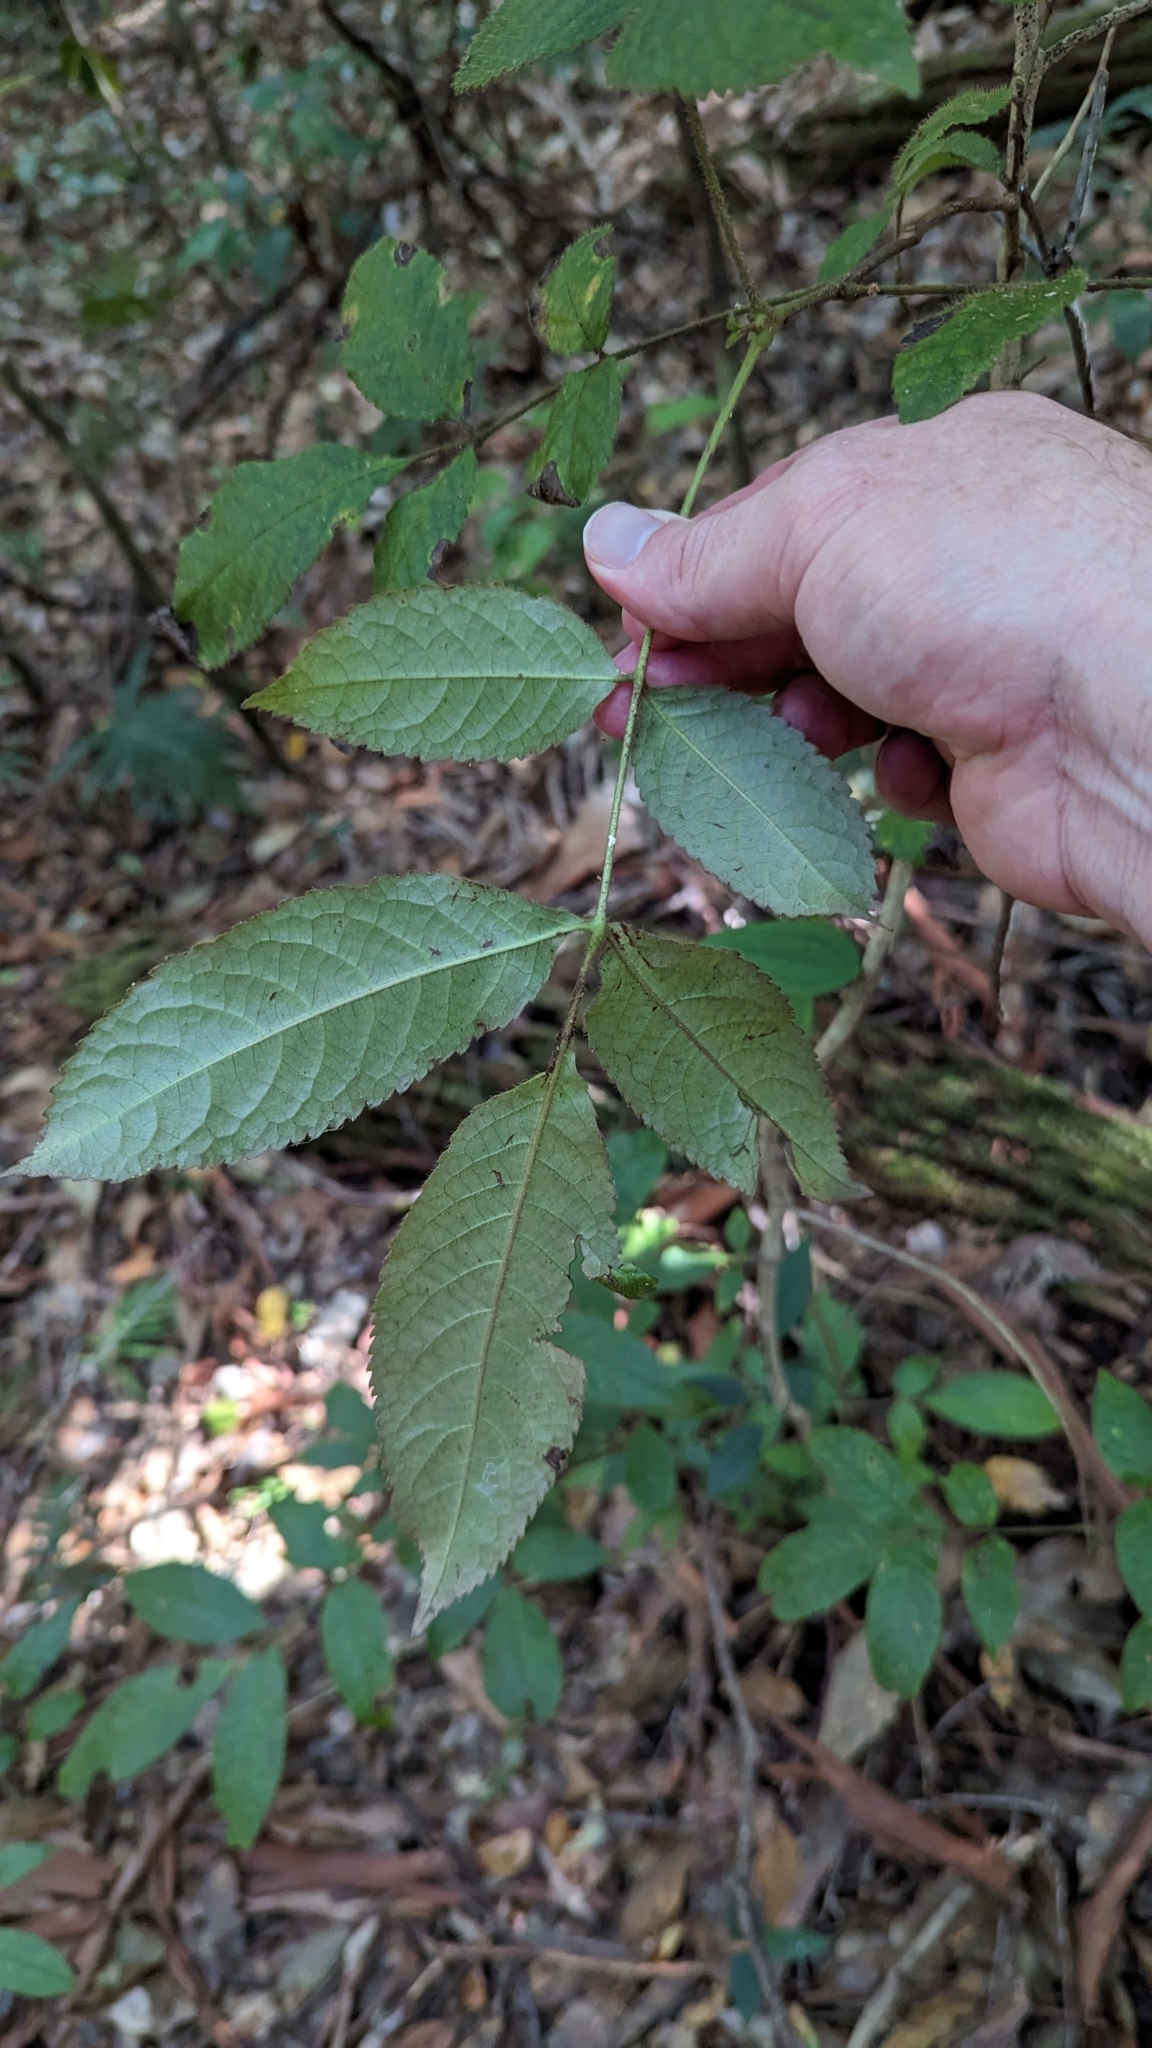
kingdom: Plantae
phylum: Tracheophyta
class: Magnoliopsida
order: Oxalidales
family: Cunoniaceae
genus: Ackama
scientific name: Ackama paniculosa
